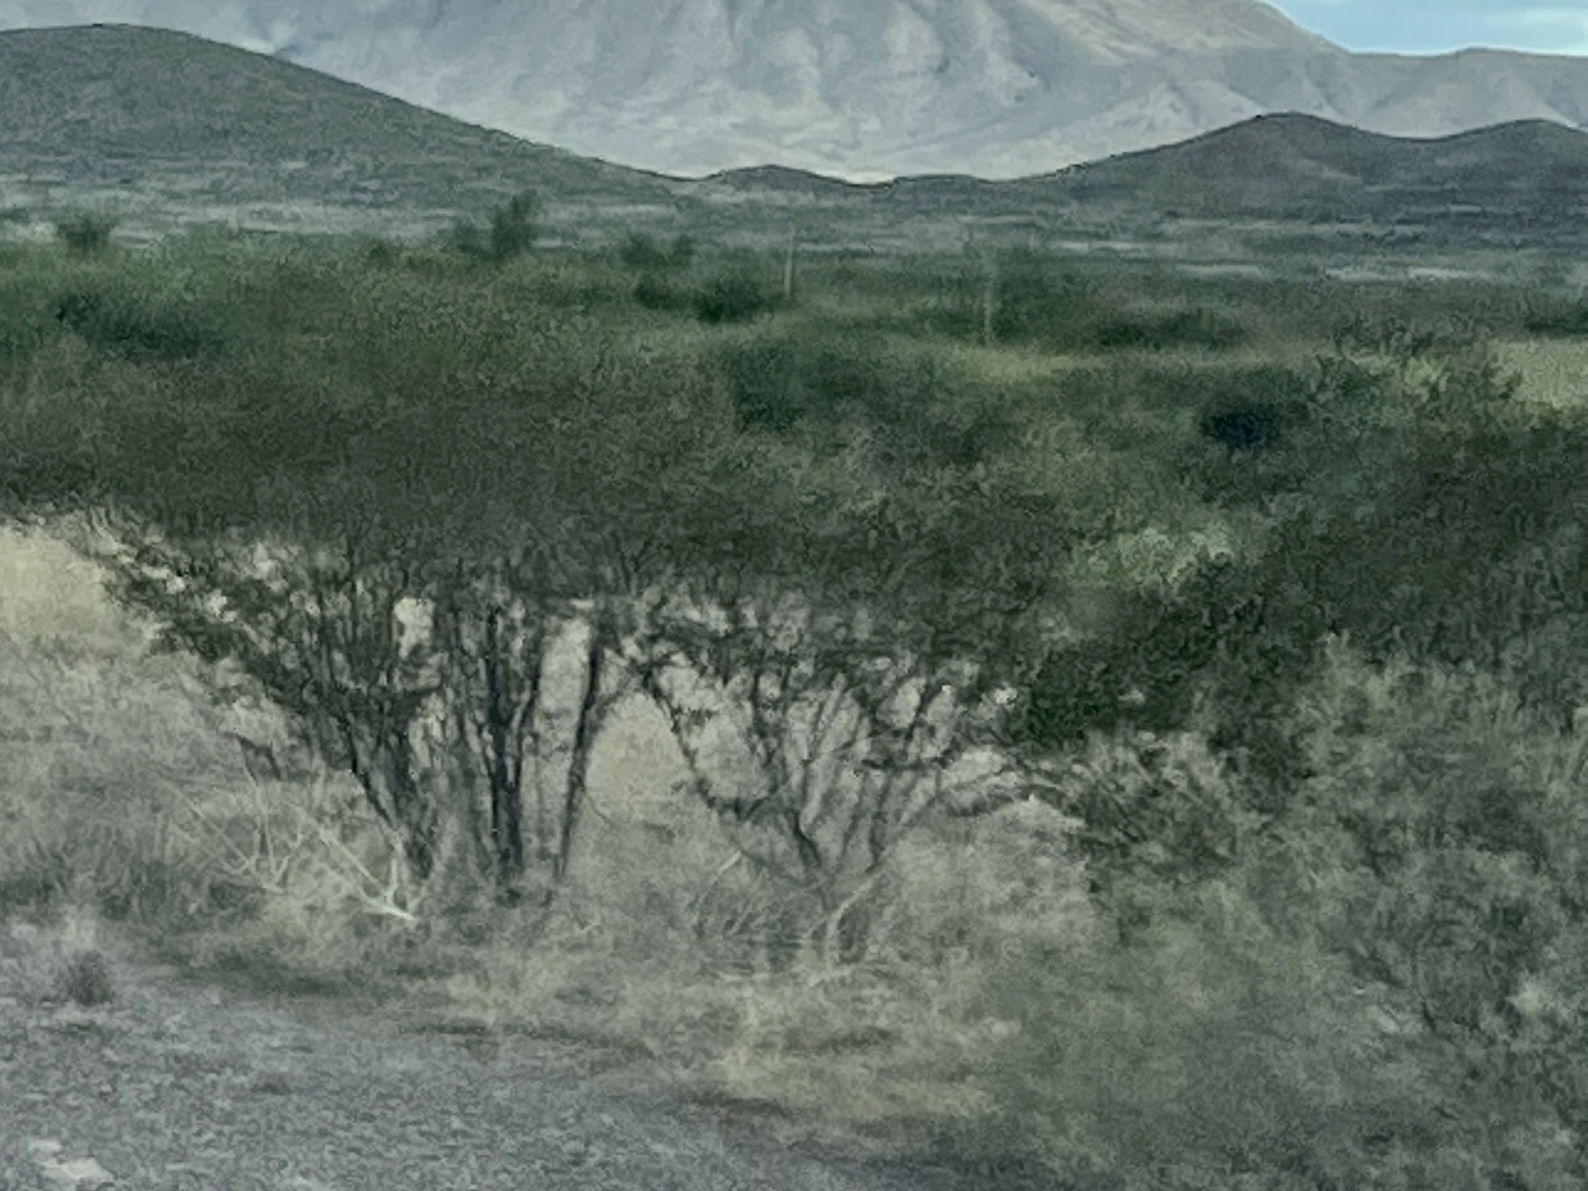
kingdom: Plantae
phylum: Tracheophyta
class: Magnoliopsida
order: Zygophyllales
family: Zygophyllaceae
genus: Larrea
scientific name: Larrea tridentata
